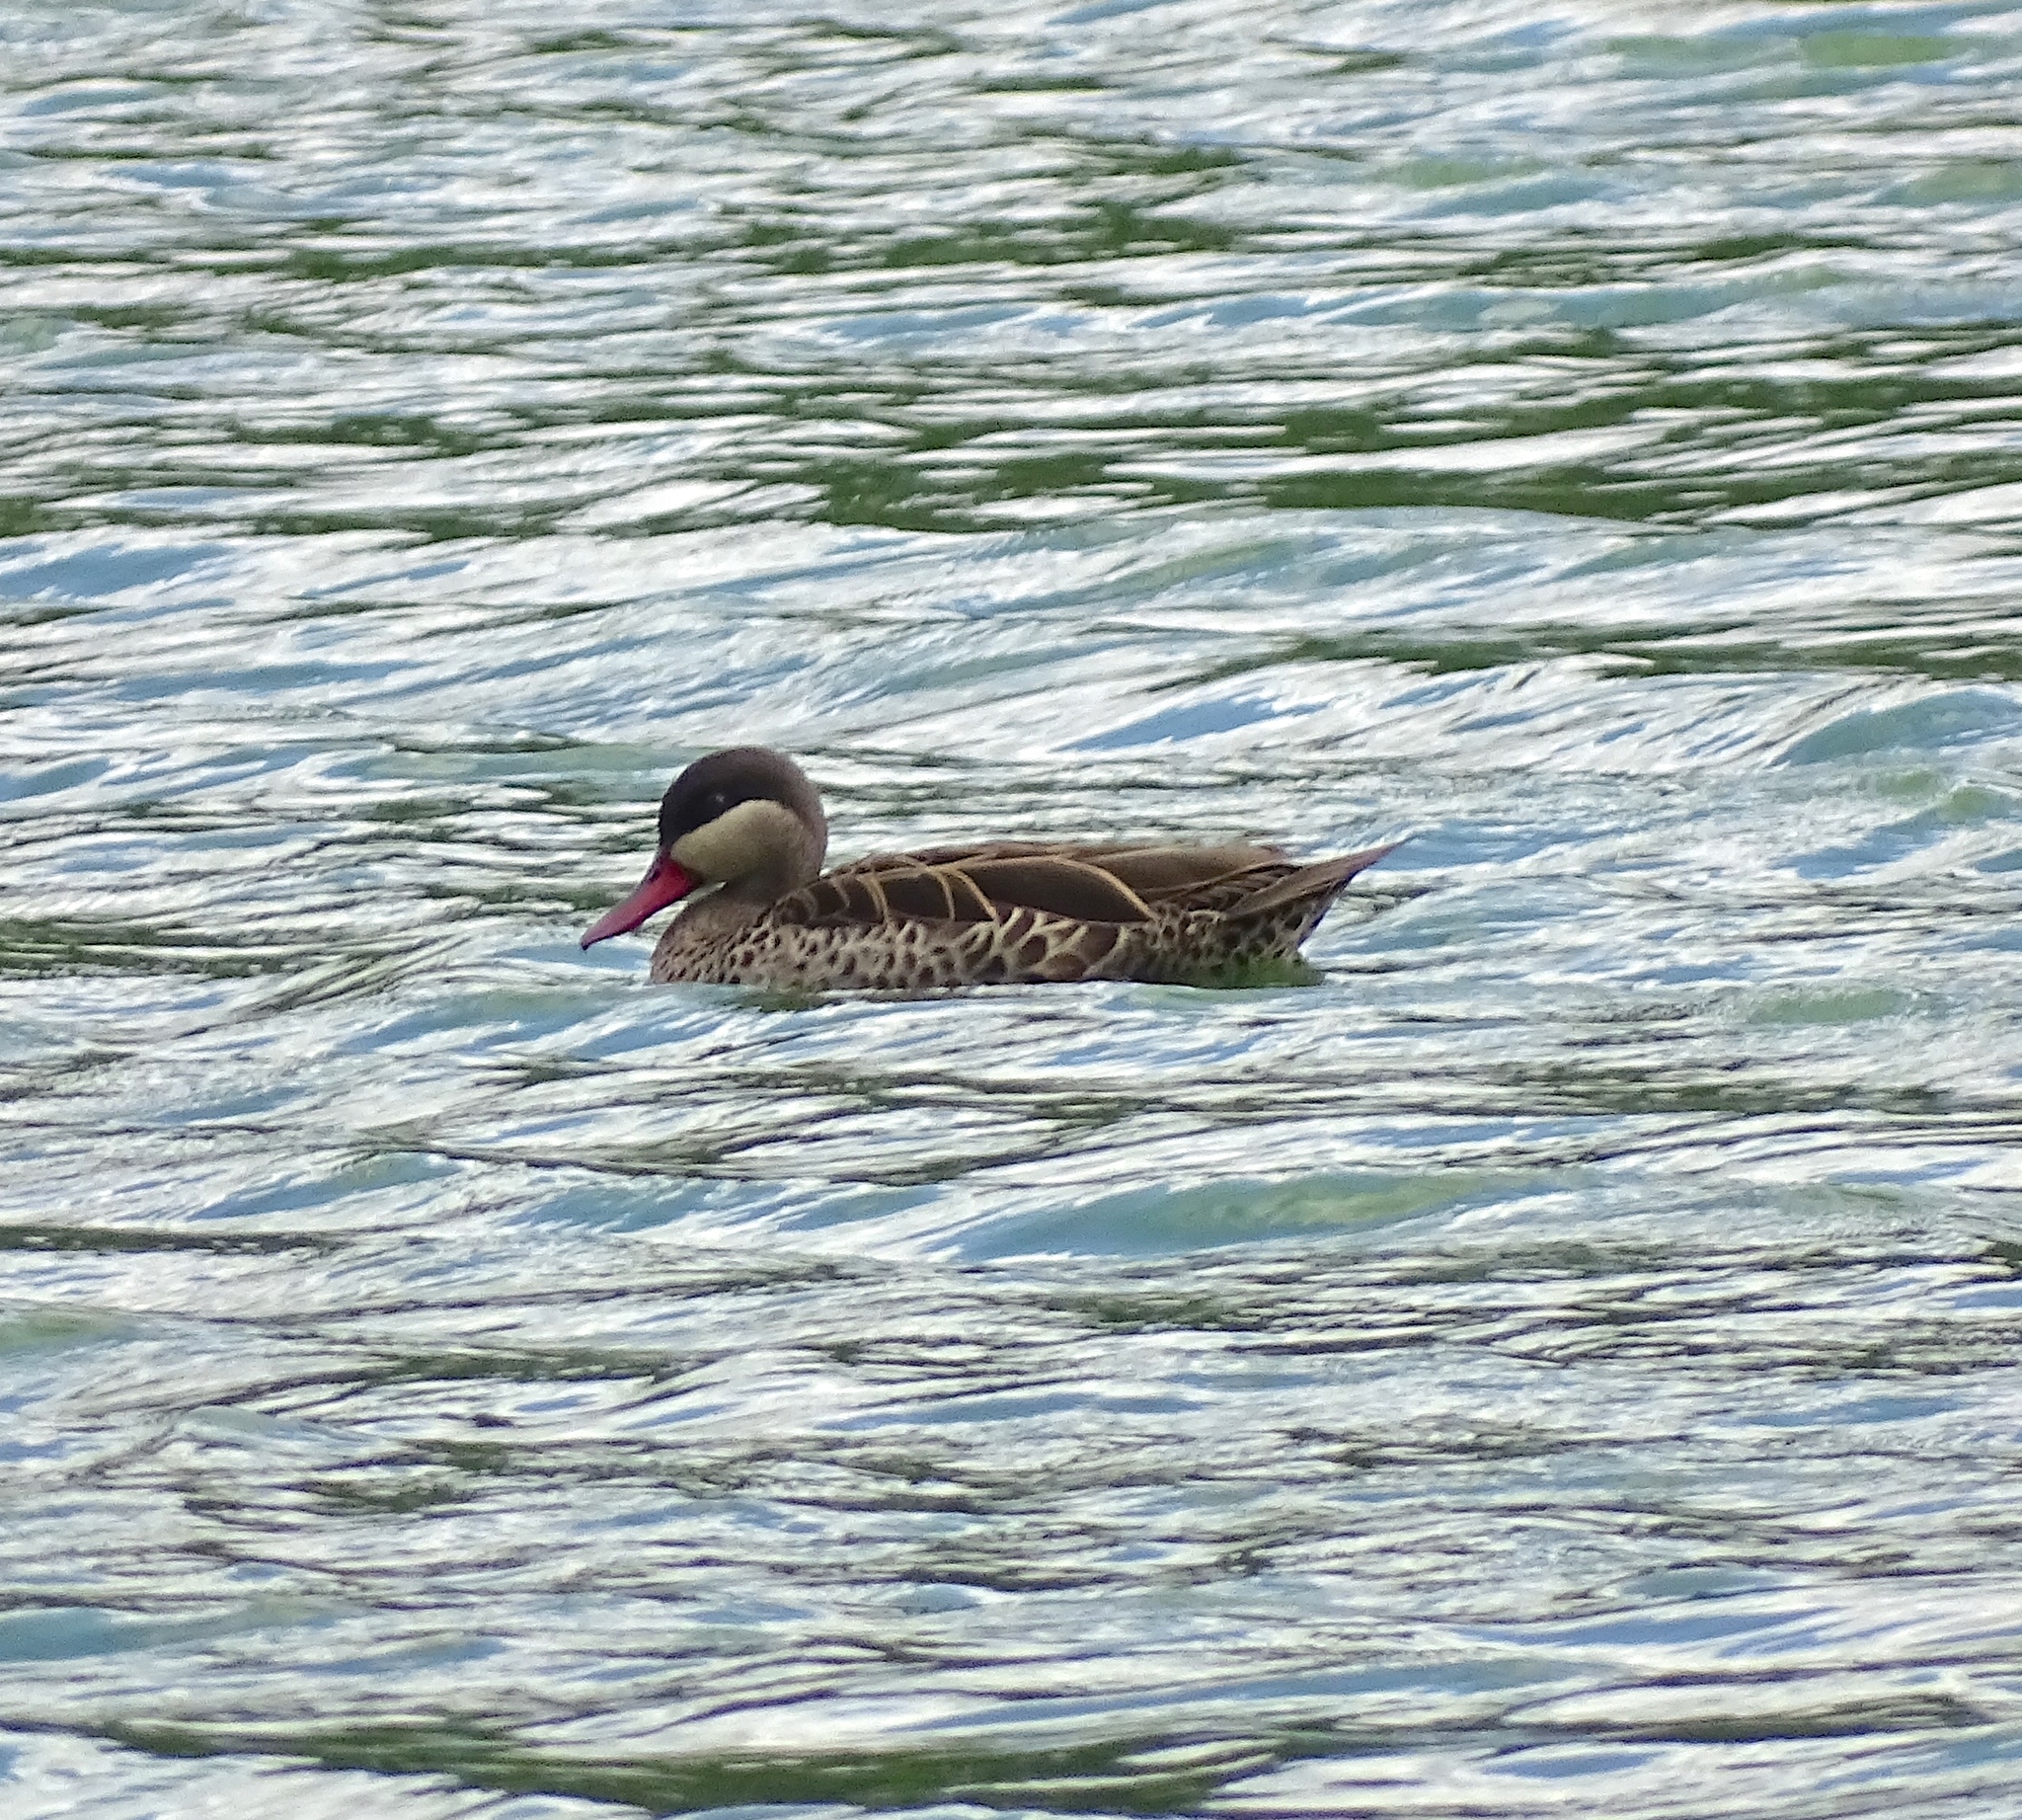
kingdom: Animalia
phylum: Chordata
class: Aves
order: Anseriformes
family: Anatidae
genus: Anas
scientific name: Anas erythrorhyncha
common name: Red-billed teal
